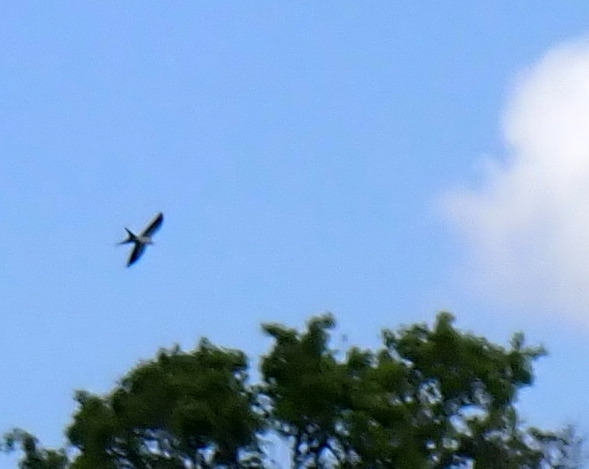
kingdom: Animalia
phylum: Chordata
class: Aves
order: Accipitriformes
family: Accipitridae
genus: Elanoides
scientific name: Elanoides forficatus
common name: Swallow-tailed kite
